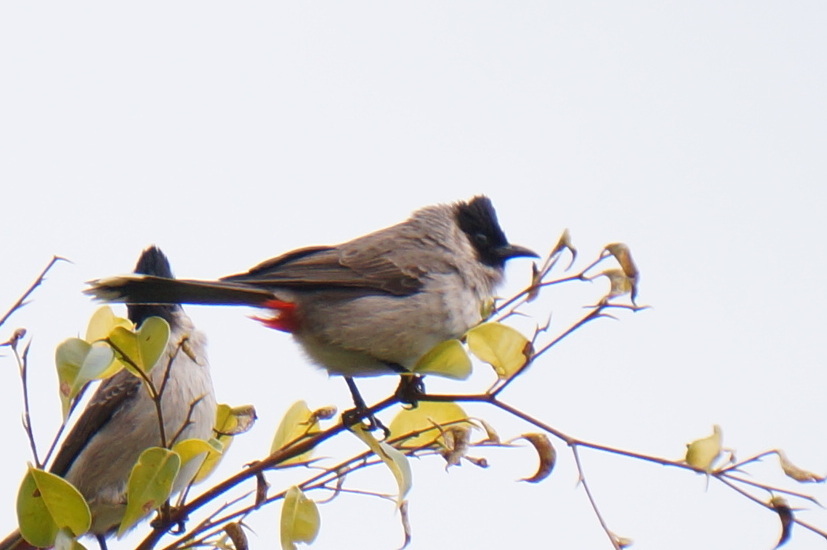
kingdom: Animalia
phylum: Chordata
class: Aves
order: Passeriformes
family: Pycnonotidae
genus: Pycnonotus
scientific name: Pycnonotus aurigaster
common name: Sooty-headed bulbul
